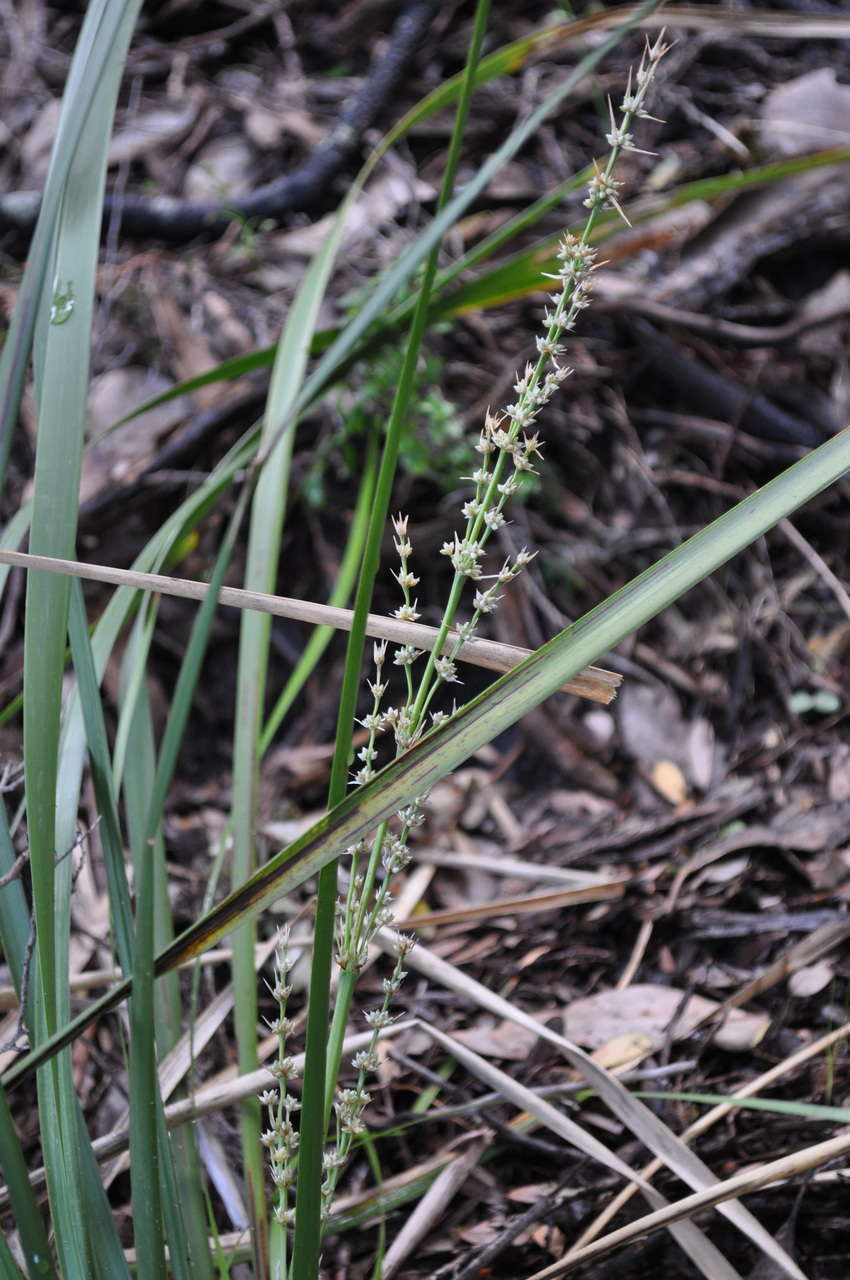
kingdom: Plantae
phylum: Tracheophyta
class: Liliopsida
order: Asparagales
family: Asparagaceae
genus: Lomandra
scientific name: Lomandra longifolia
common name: Longleaf mat-rush
